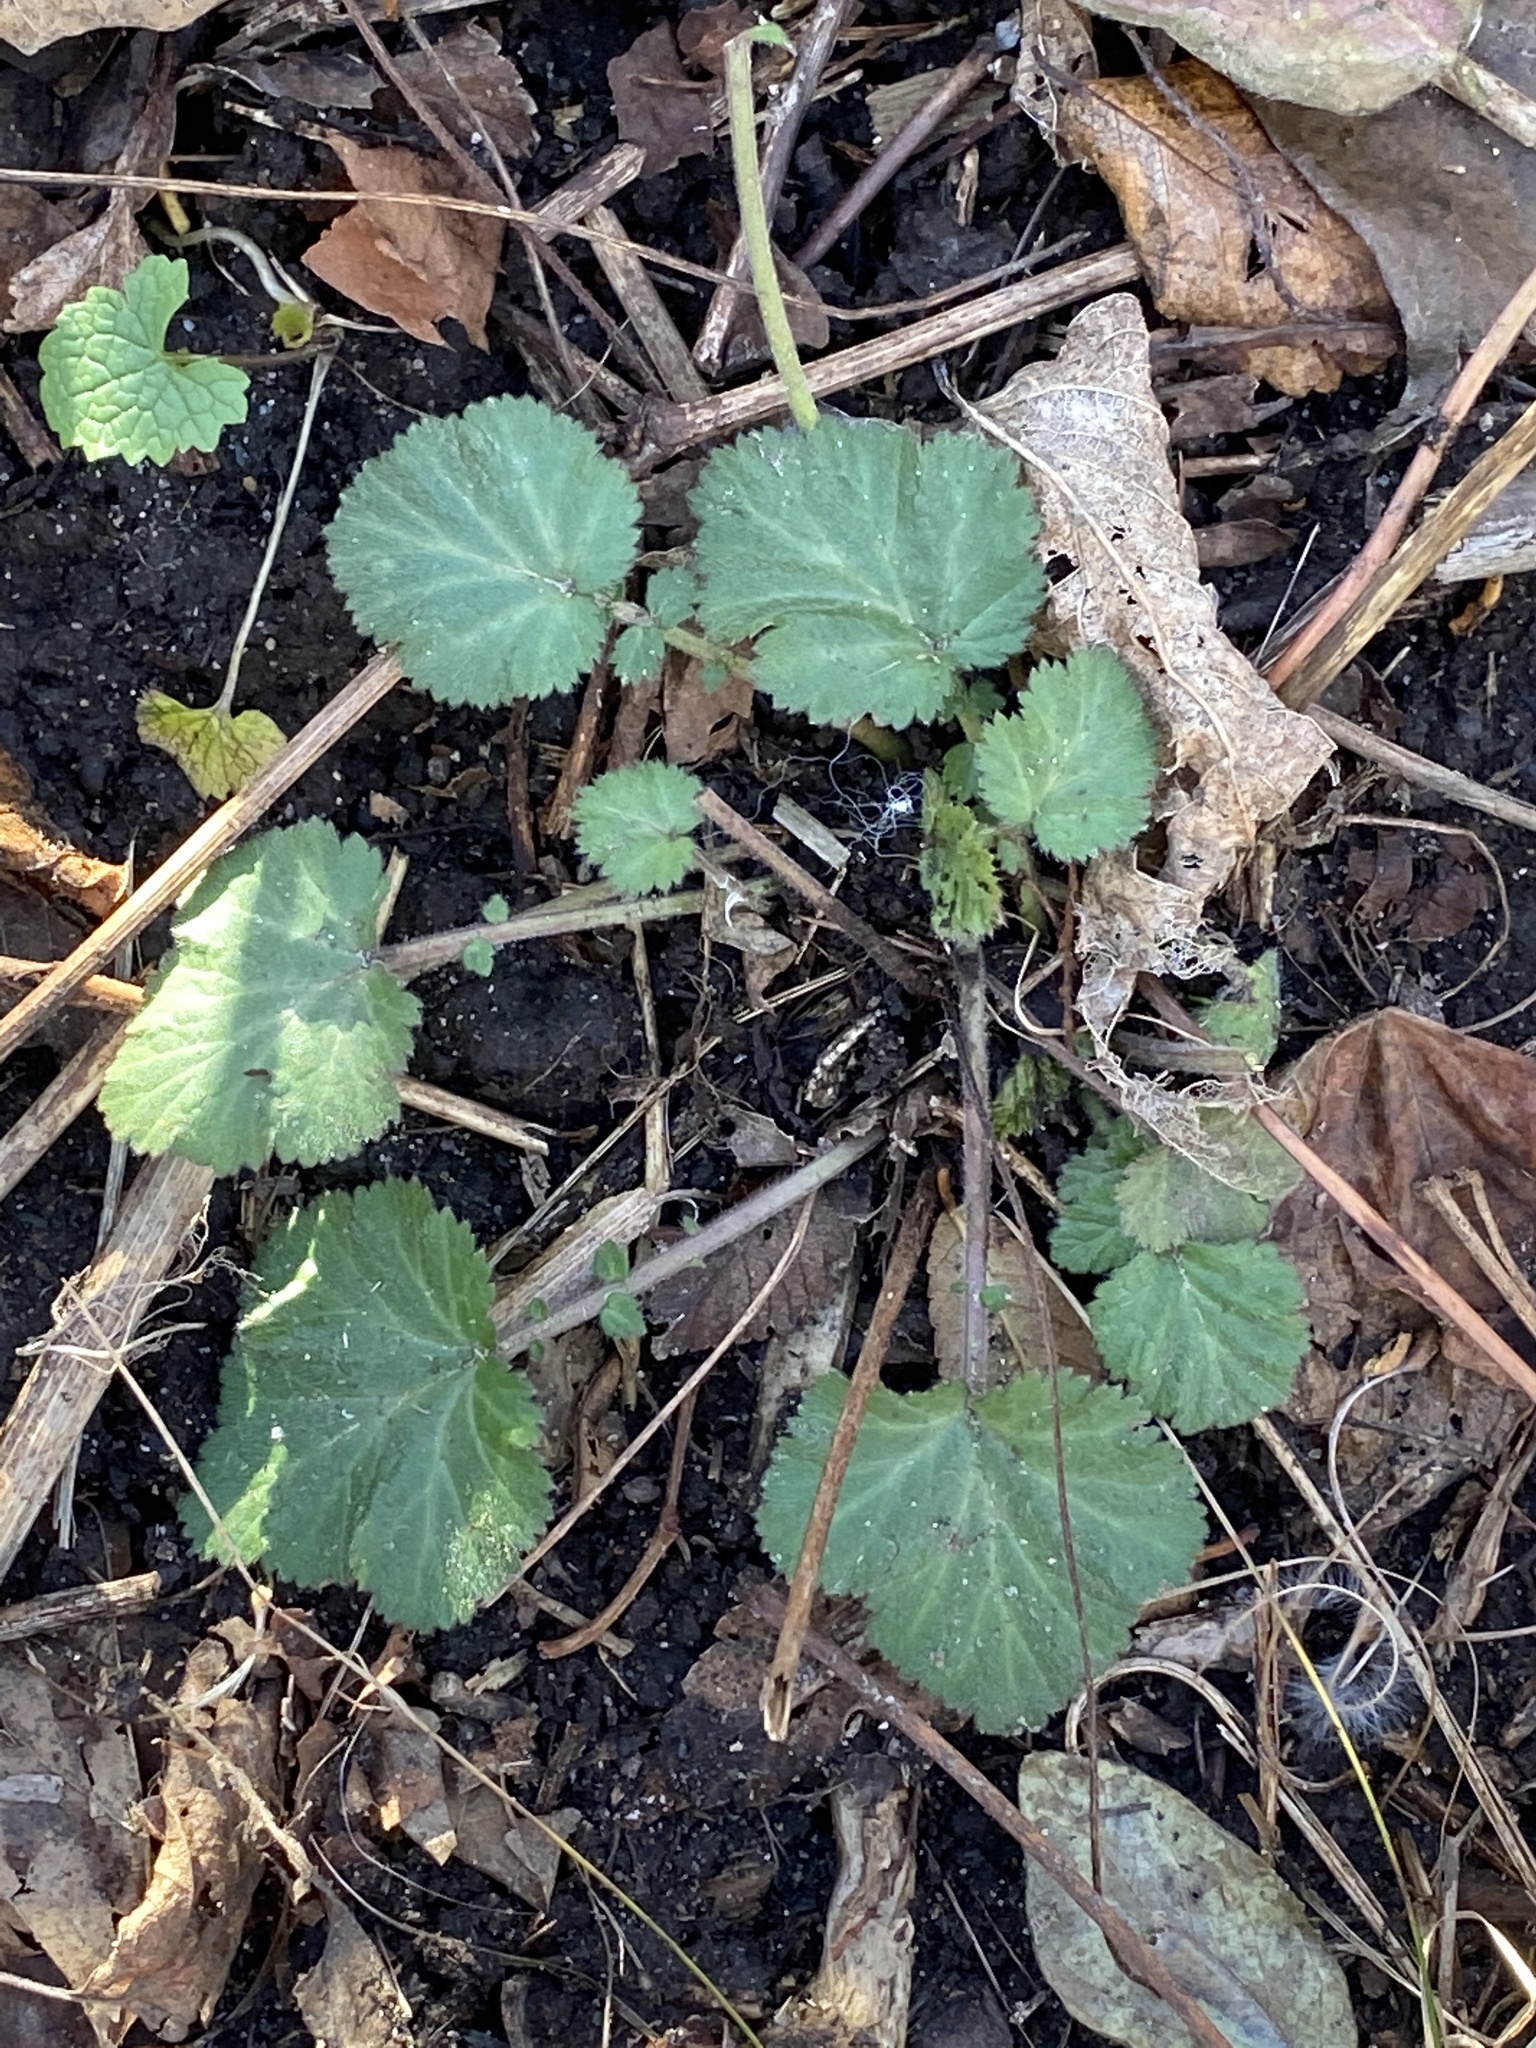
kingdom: Plantae
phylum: Tracheophyta
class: Magnoliopsida
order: Rosales
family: Rosaceae
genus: Geum
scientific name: Geum canadense
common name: White avens
